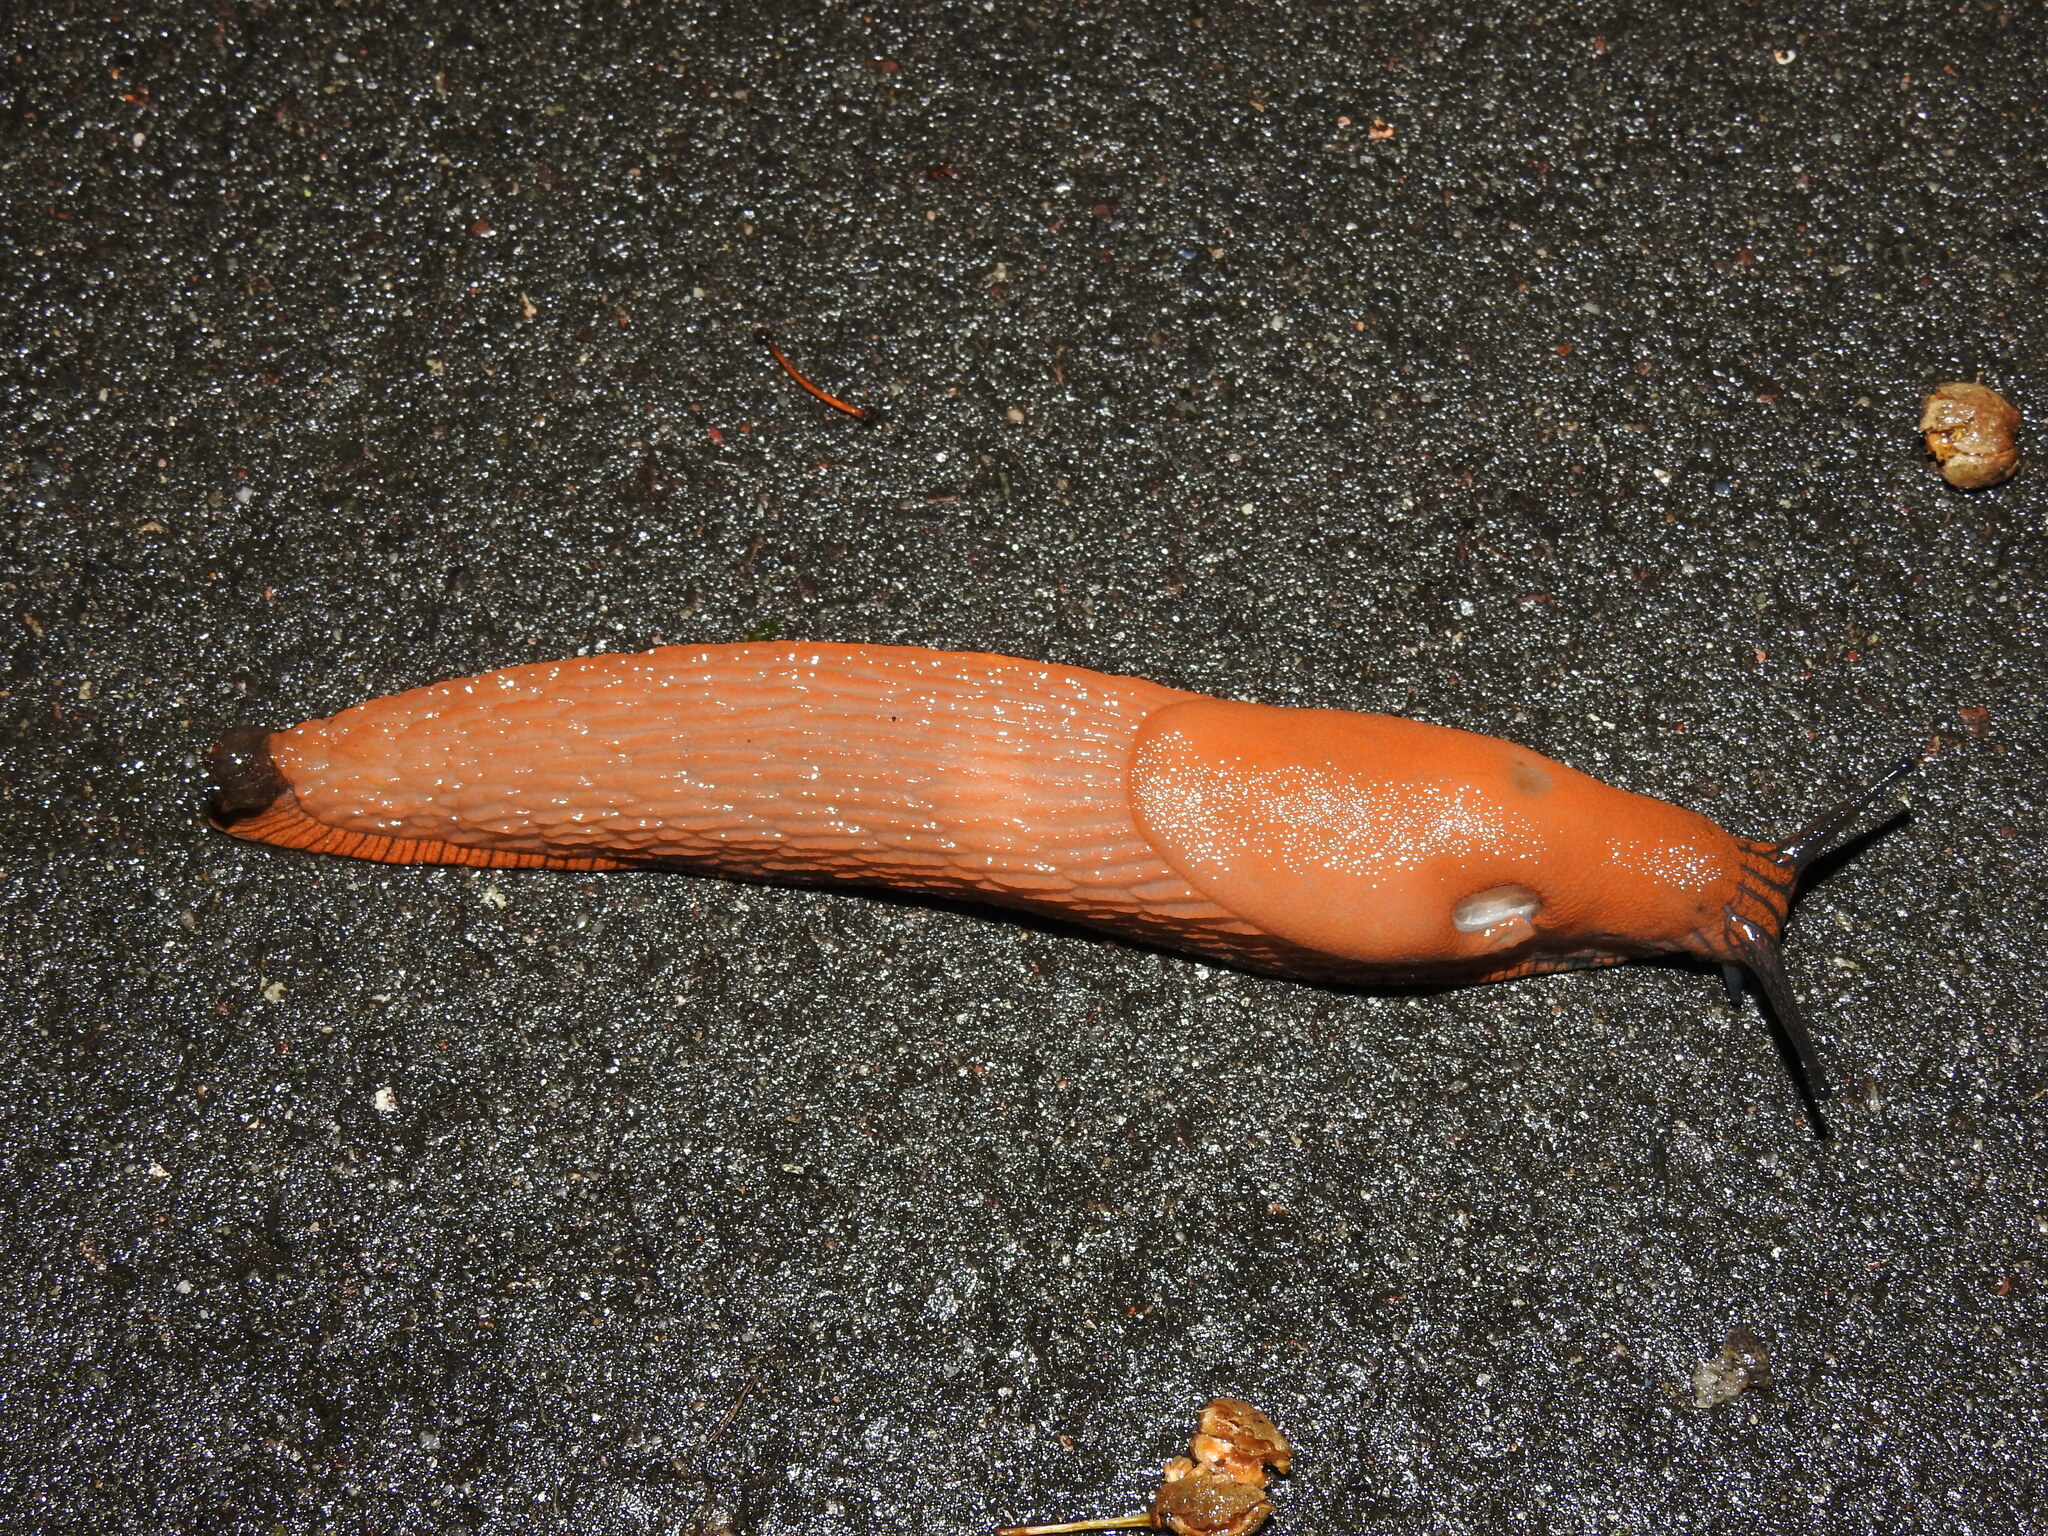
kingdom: Animalia
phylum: Mollusca
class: Gastropoda
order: Stylommatophora
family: Arionidae
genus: Arion
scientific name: Arion rufus
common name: Chocolate arion
